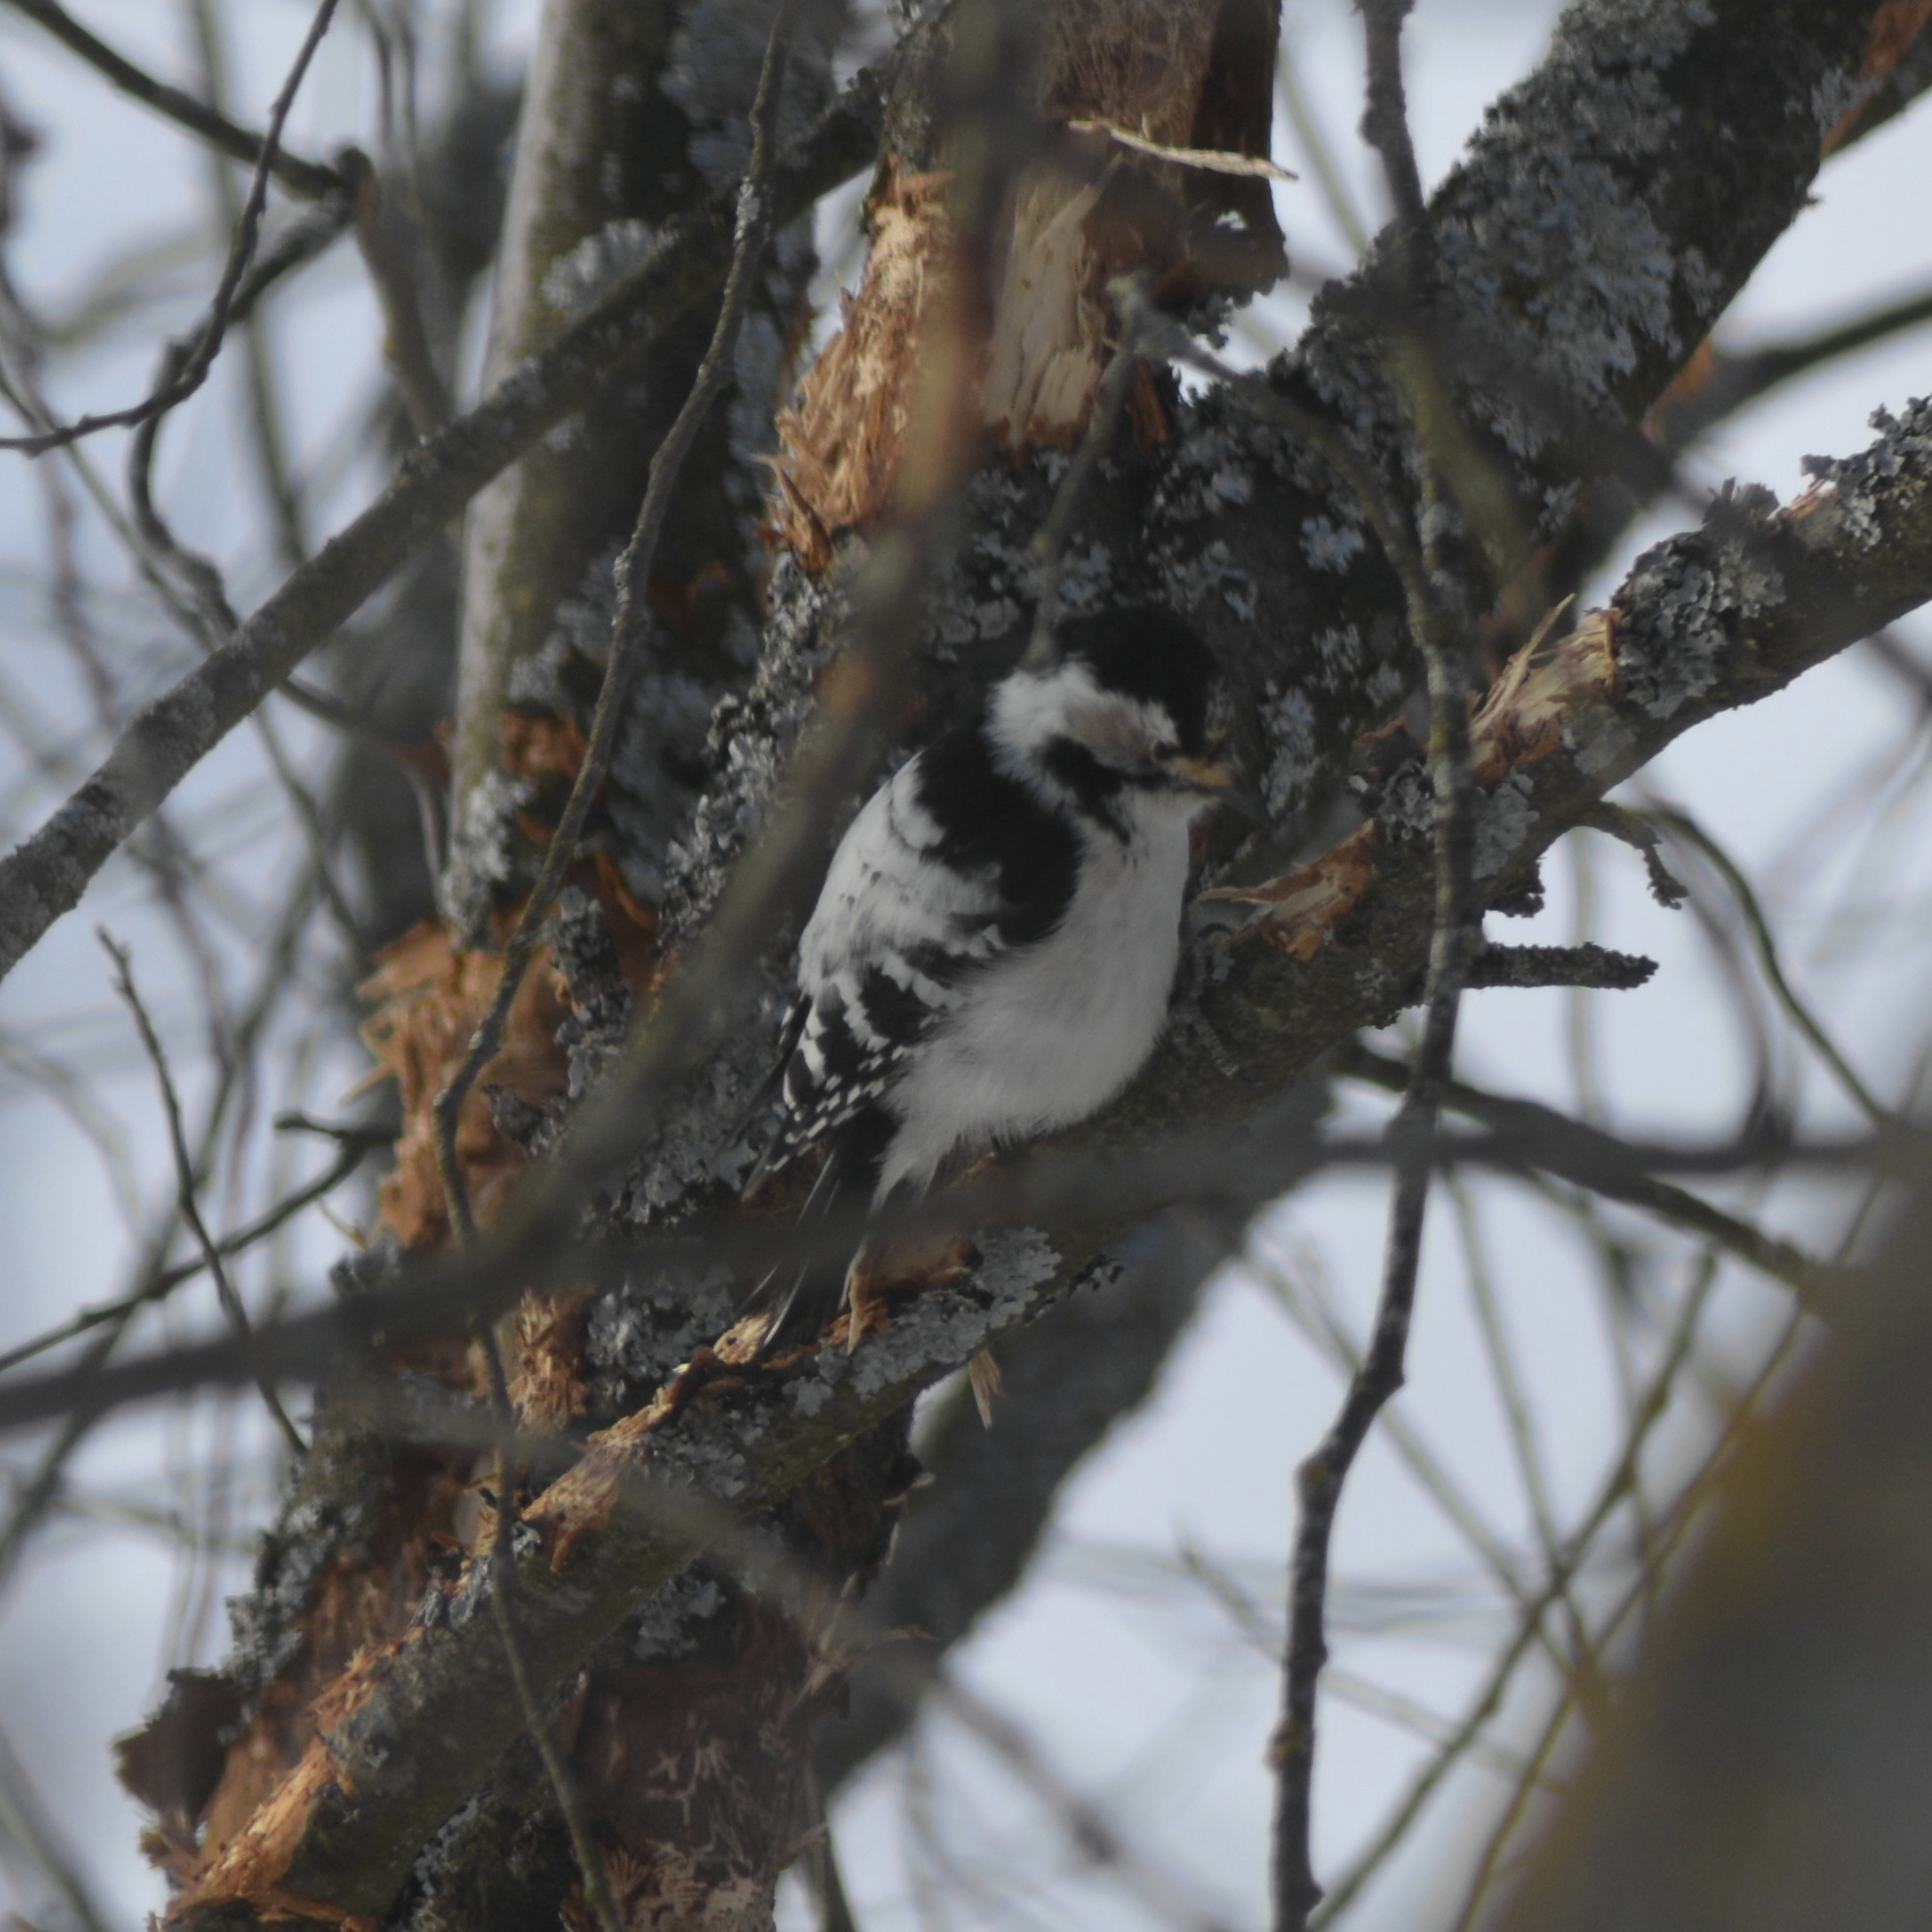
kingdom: Animalia
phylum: Chordata
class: Aves
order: Piciformes
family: Picidae
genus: Dryobates
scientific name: Dryobates minor
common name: Lesser spotted woodpecker
